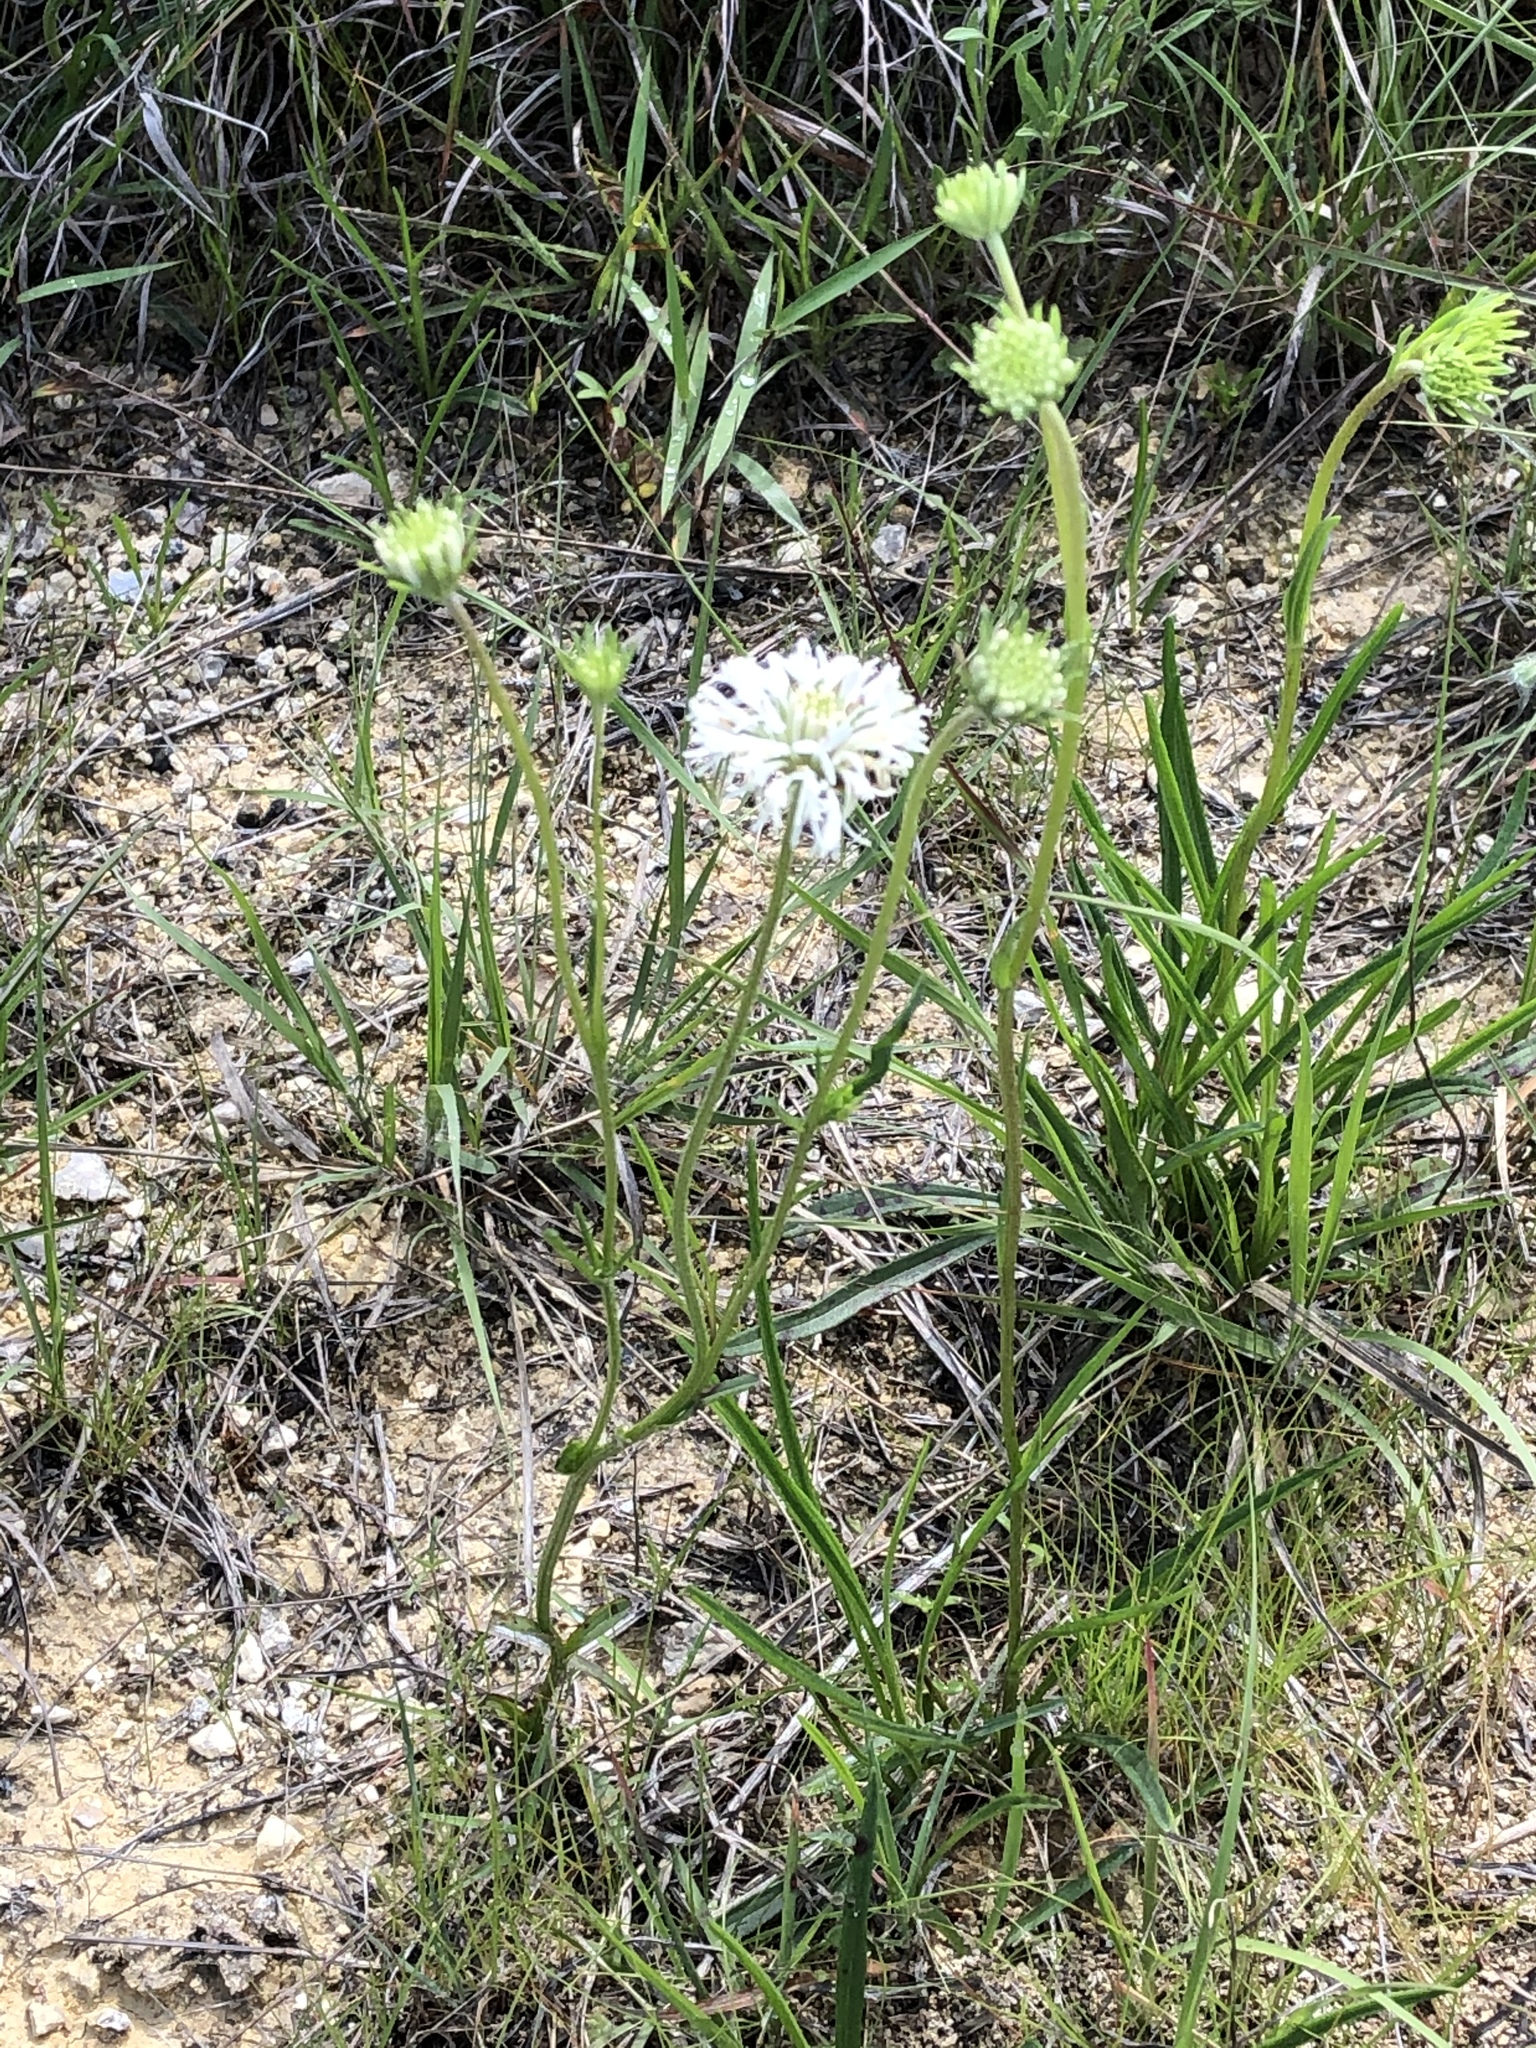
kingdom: Plantae
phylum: Tracheophyta
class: Magnoliopsida
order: Asterales
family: Asteraceae
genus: Marshallia
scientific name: Marshallia caespitosa
